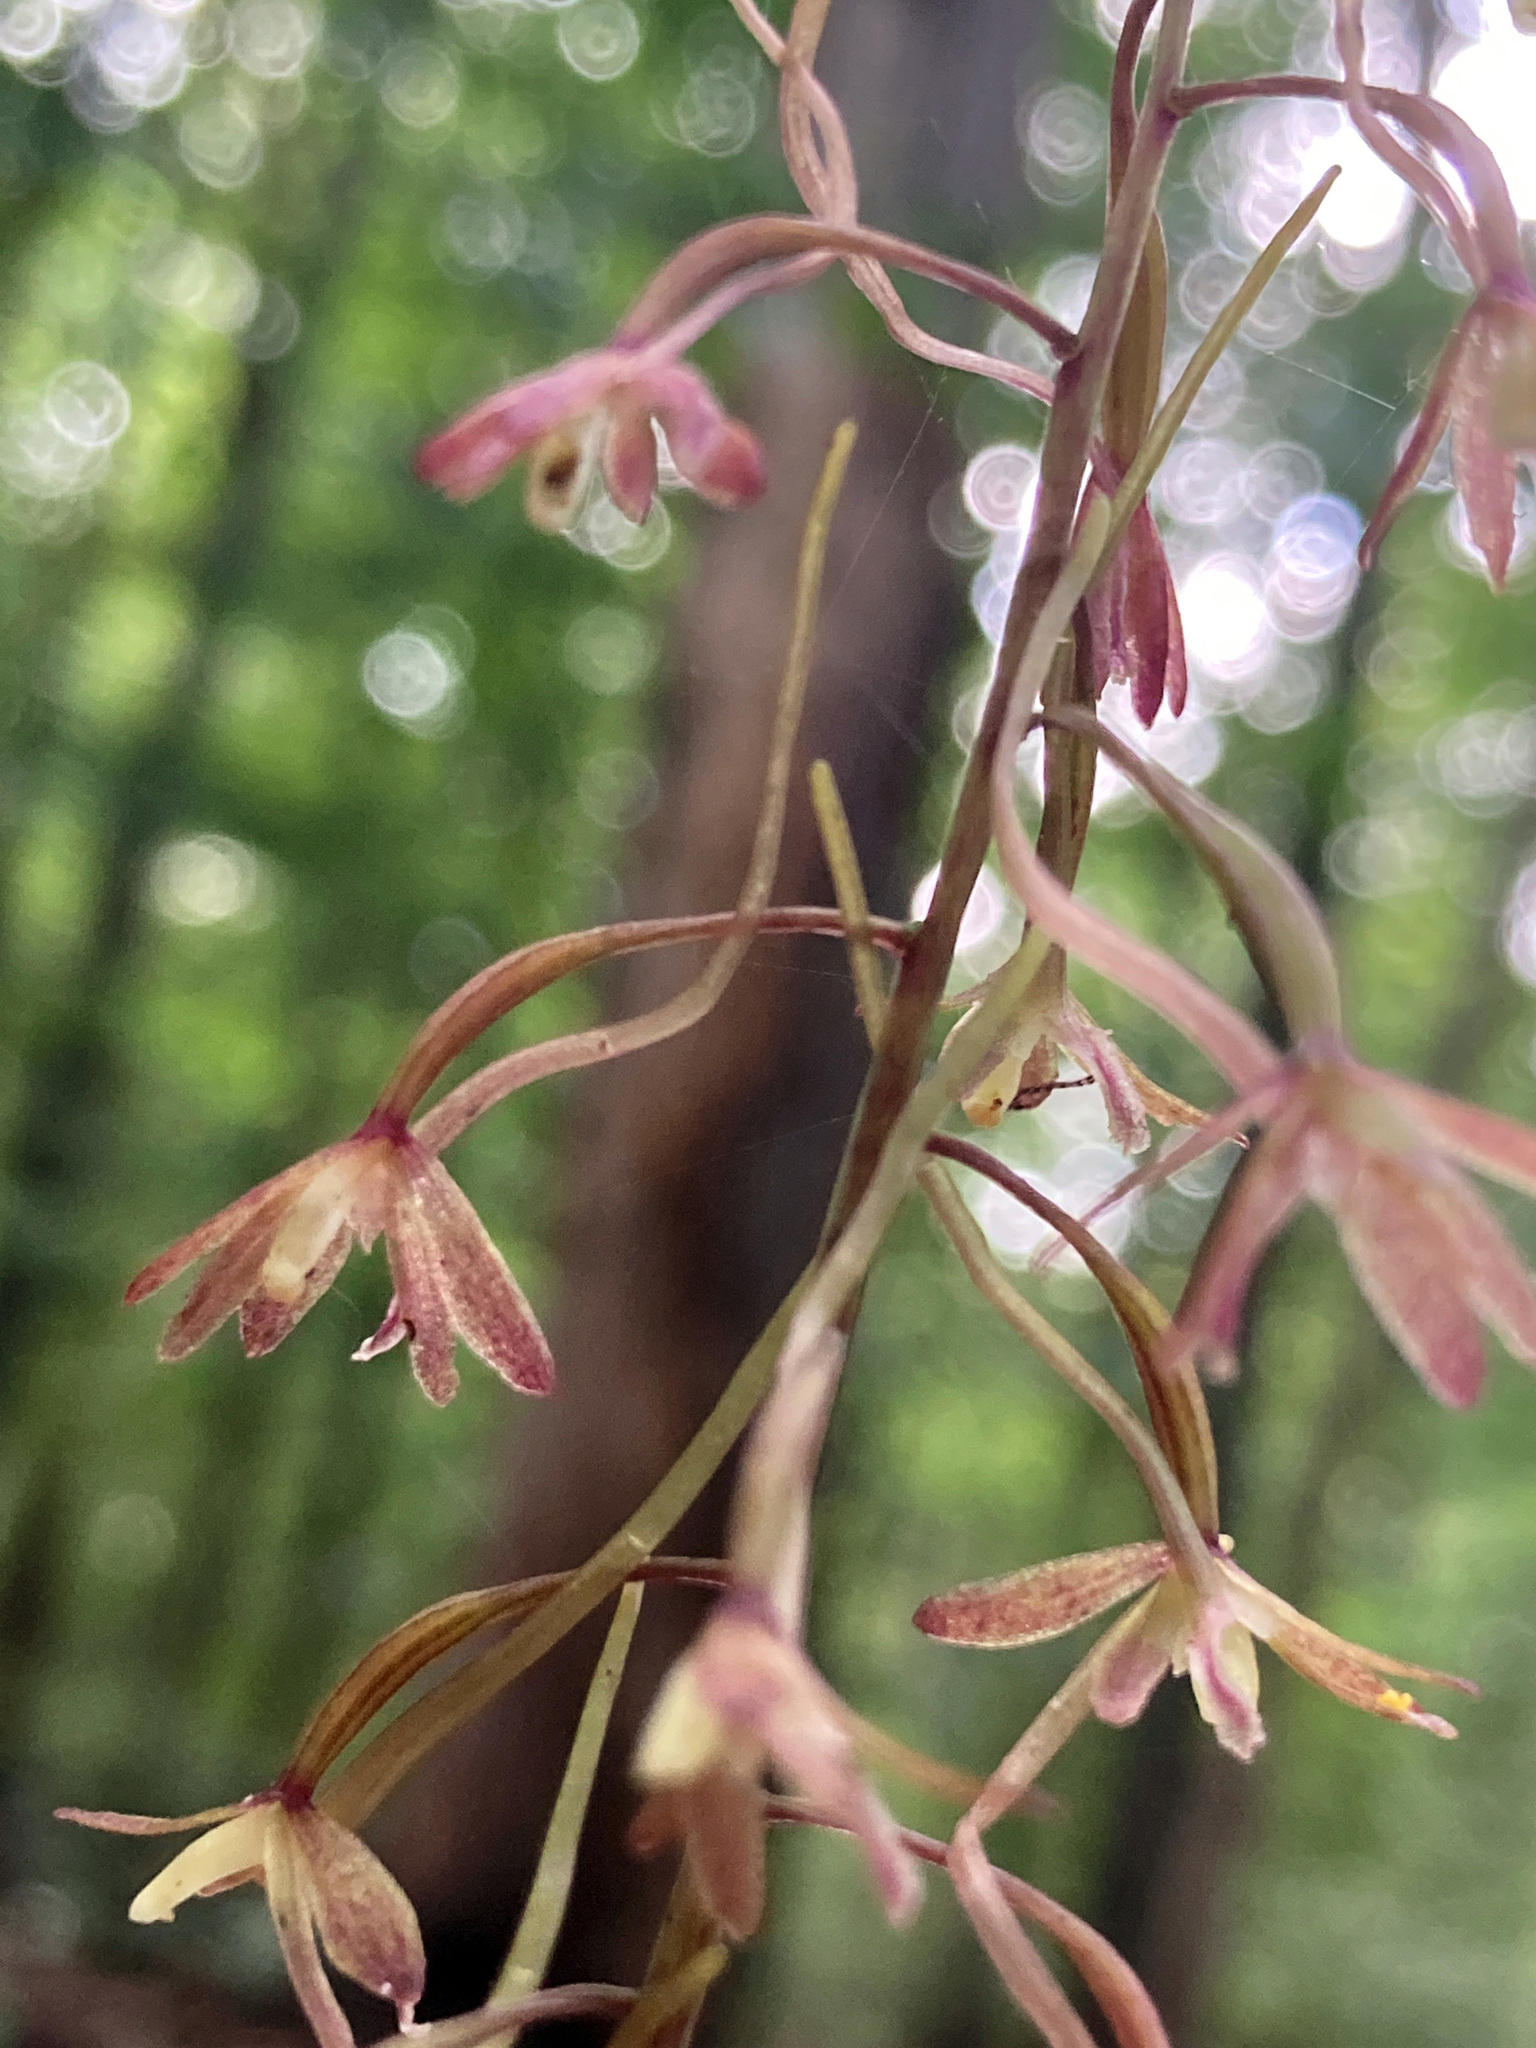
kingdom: Plantae
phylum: Tracheophyta
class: Liliopsida
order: Asparagales
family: Orchidaceae
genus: Tipularia
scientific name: Tipularia discolor
